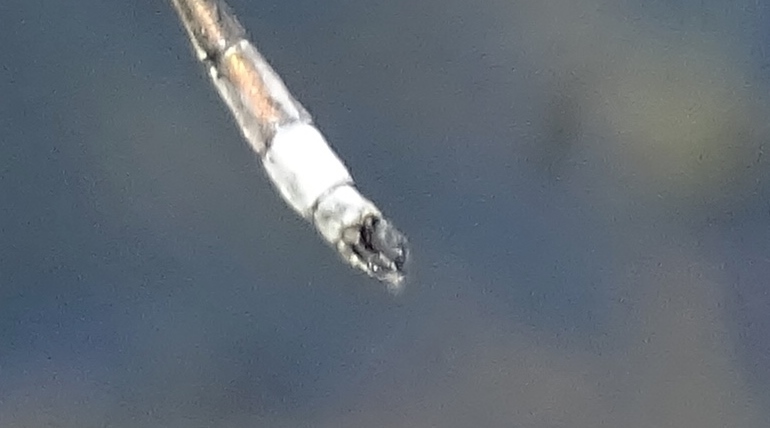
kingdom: Animalia
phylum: Arthropoda
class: Insecta
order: Odonata
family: Lestidae
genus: Lestes
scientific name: Lestes inaequalis
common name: Elegant spreadwing
